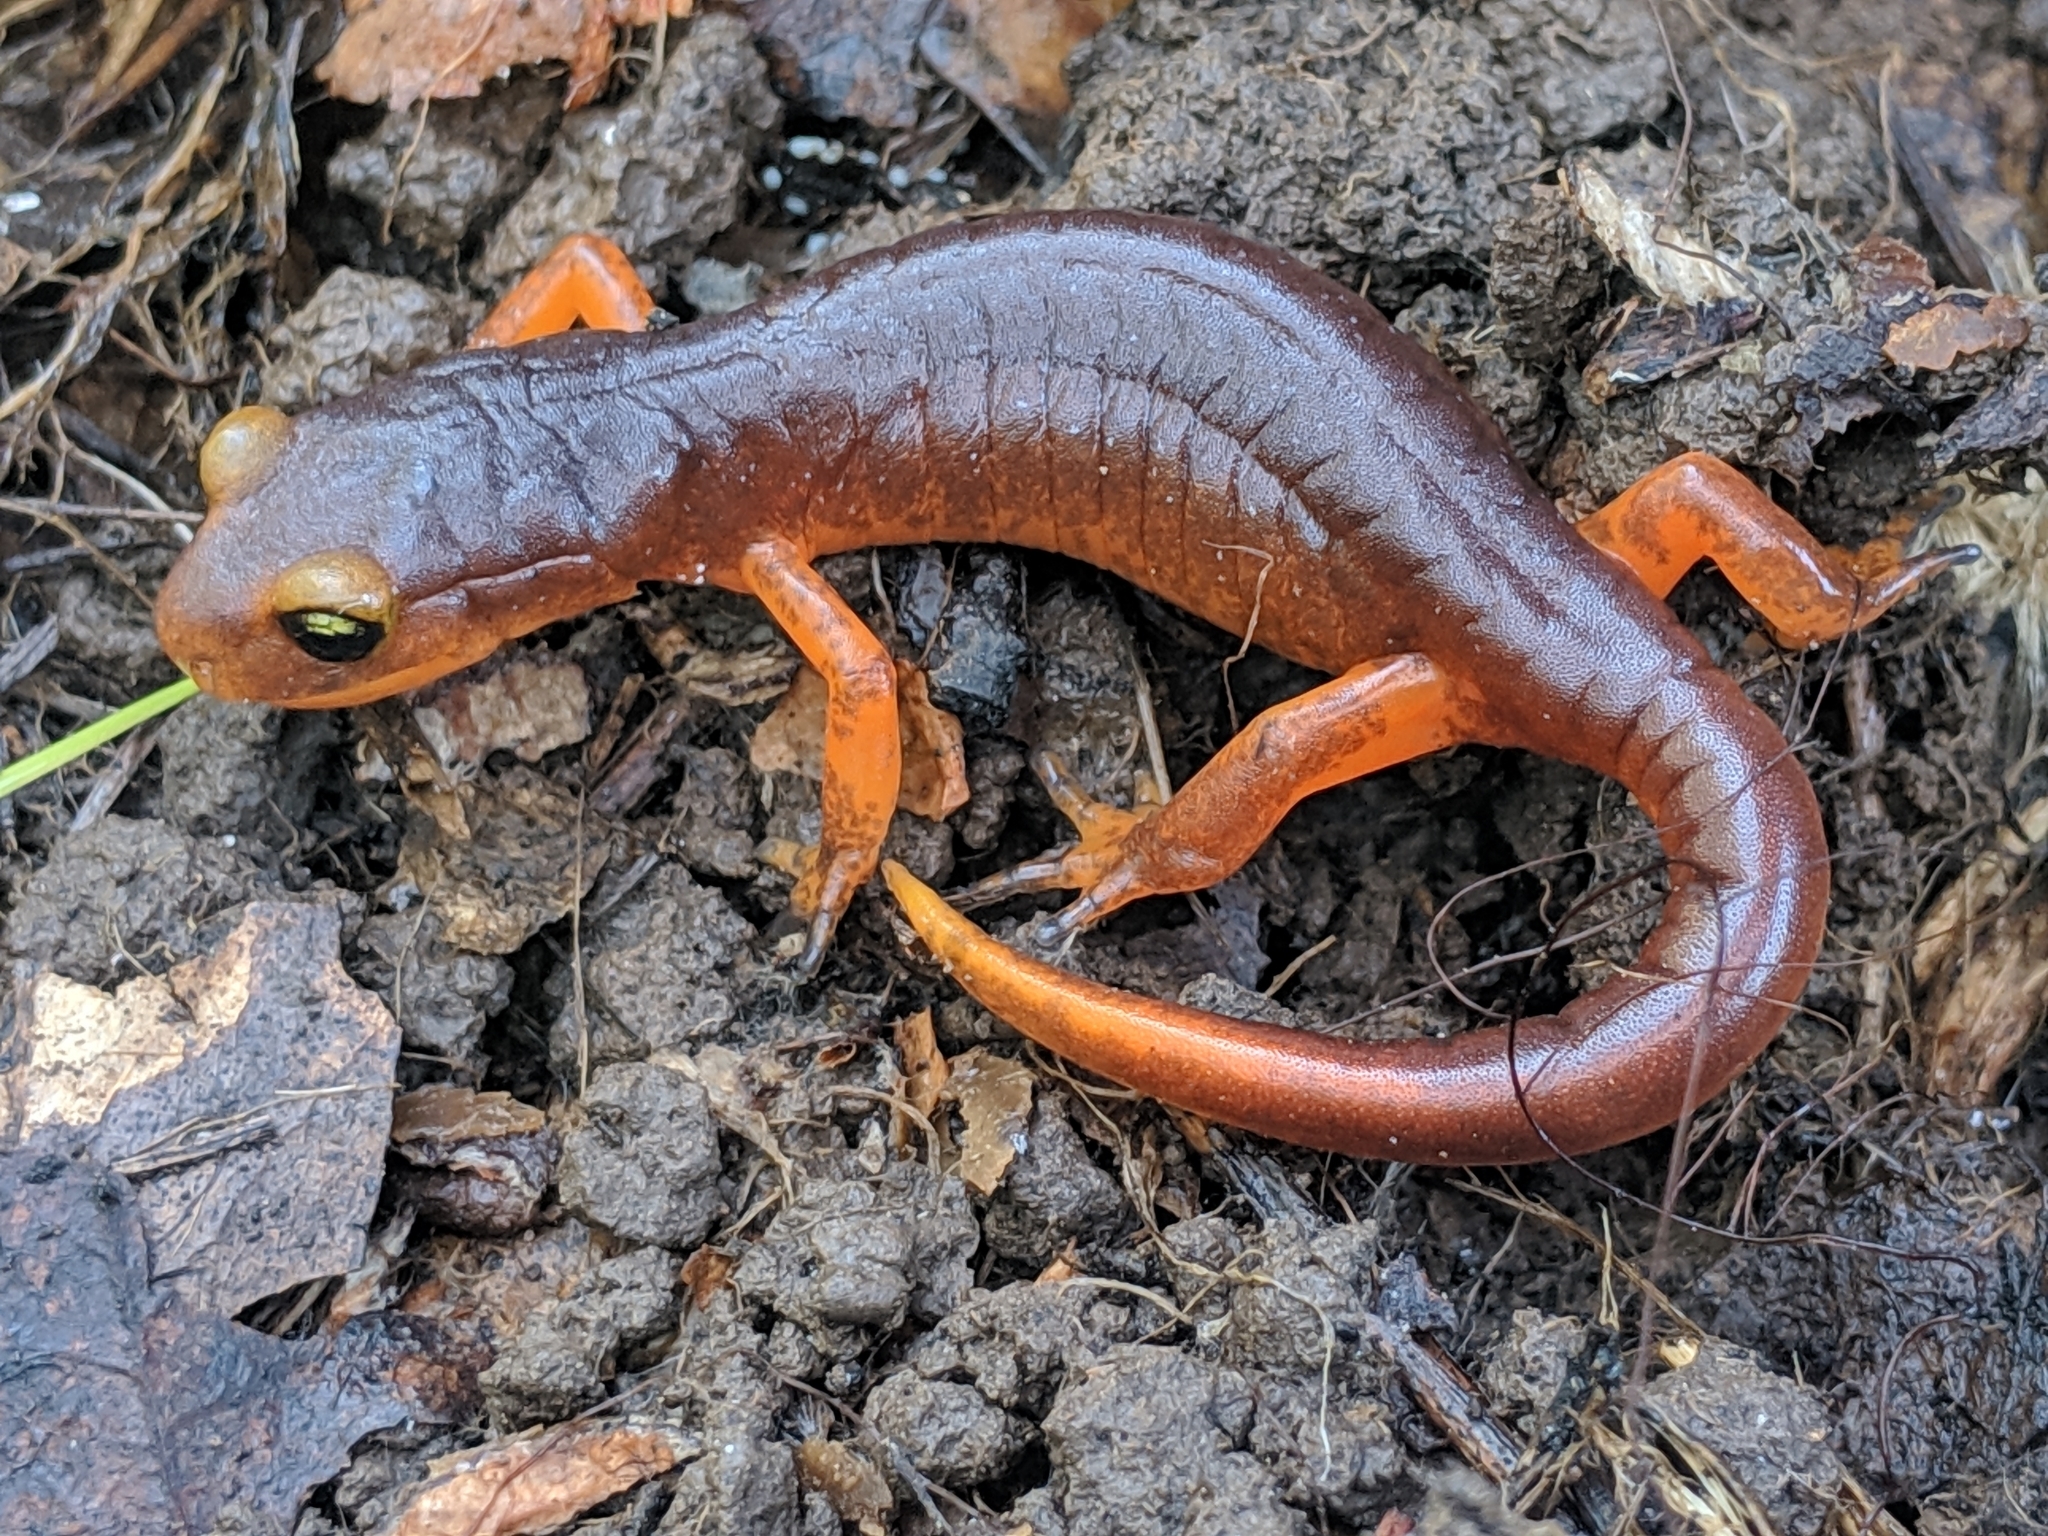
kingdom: Animalia
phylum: Chordata
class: Amphibia
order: Caudata
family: Plethodontidae
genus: Ensatina
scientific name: Ensatina eschscholtzii
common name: Ensatina
